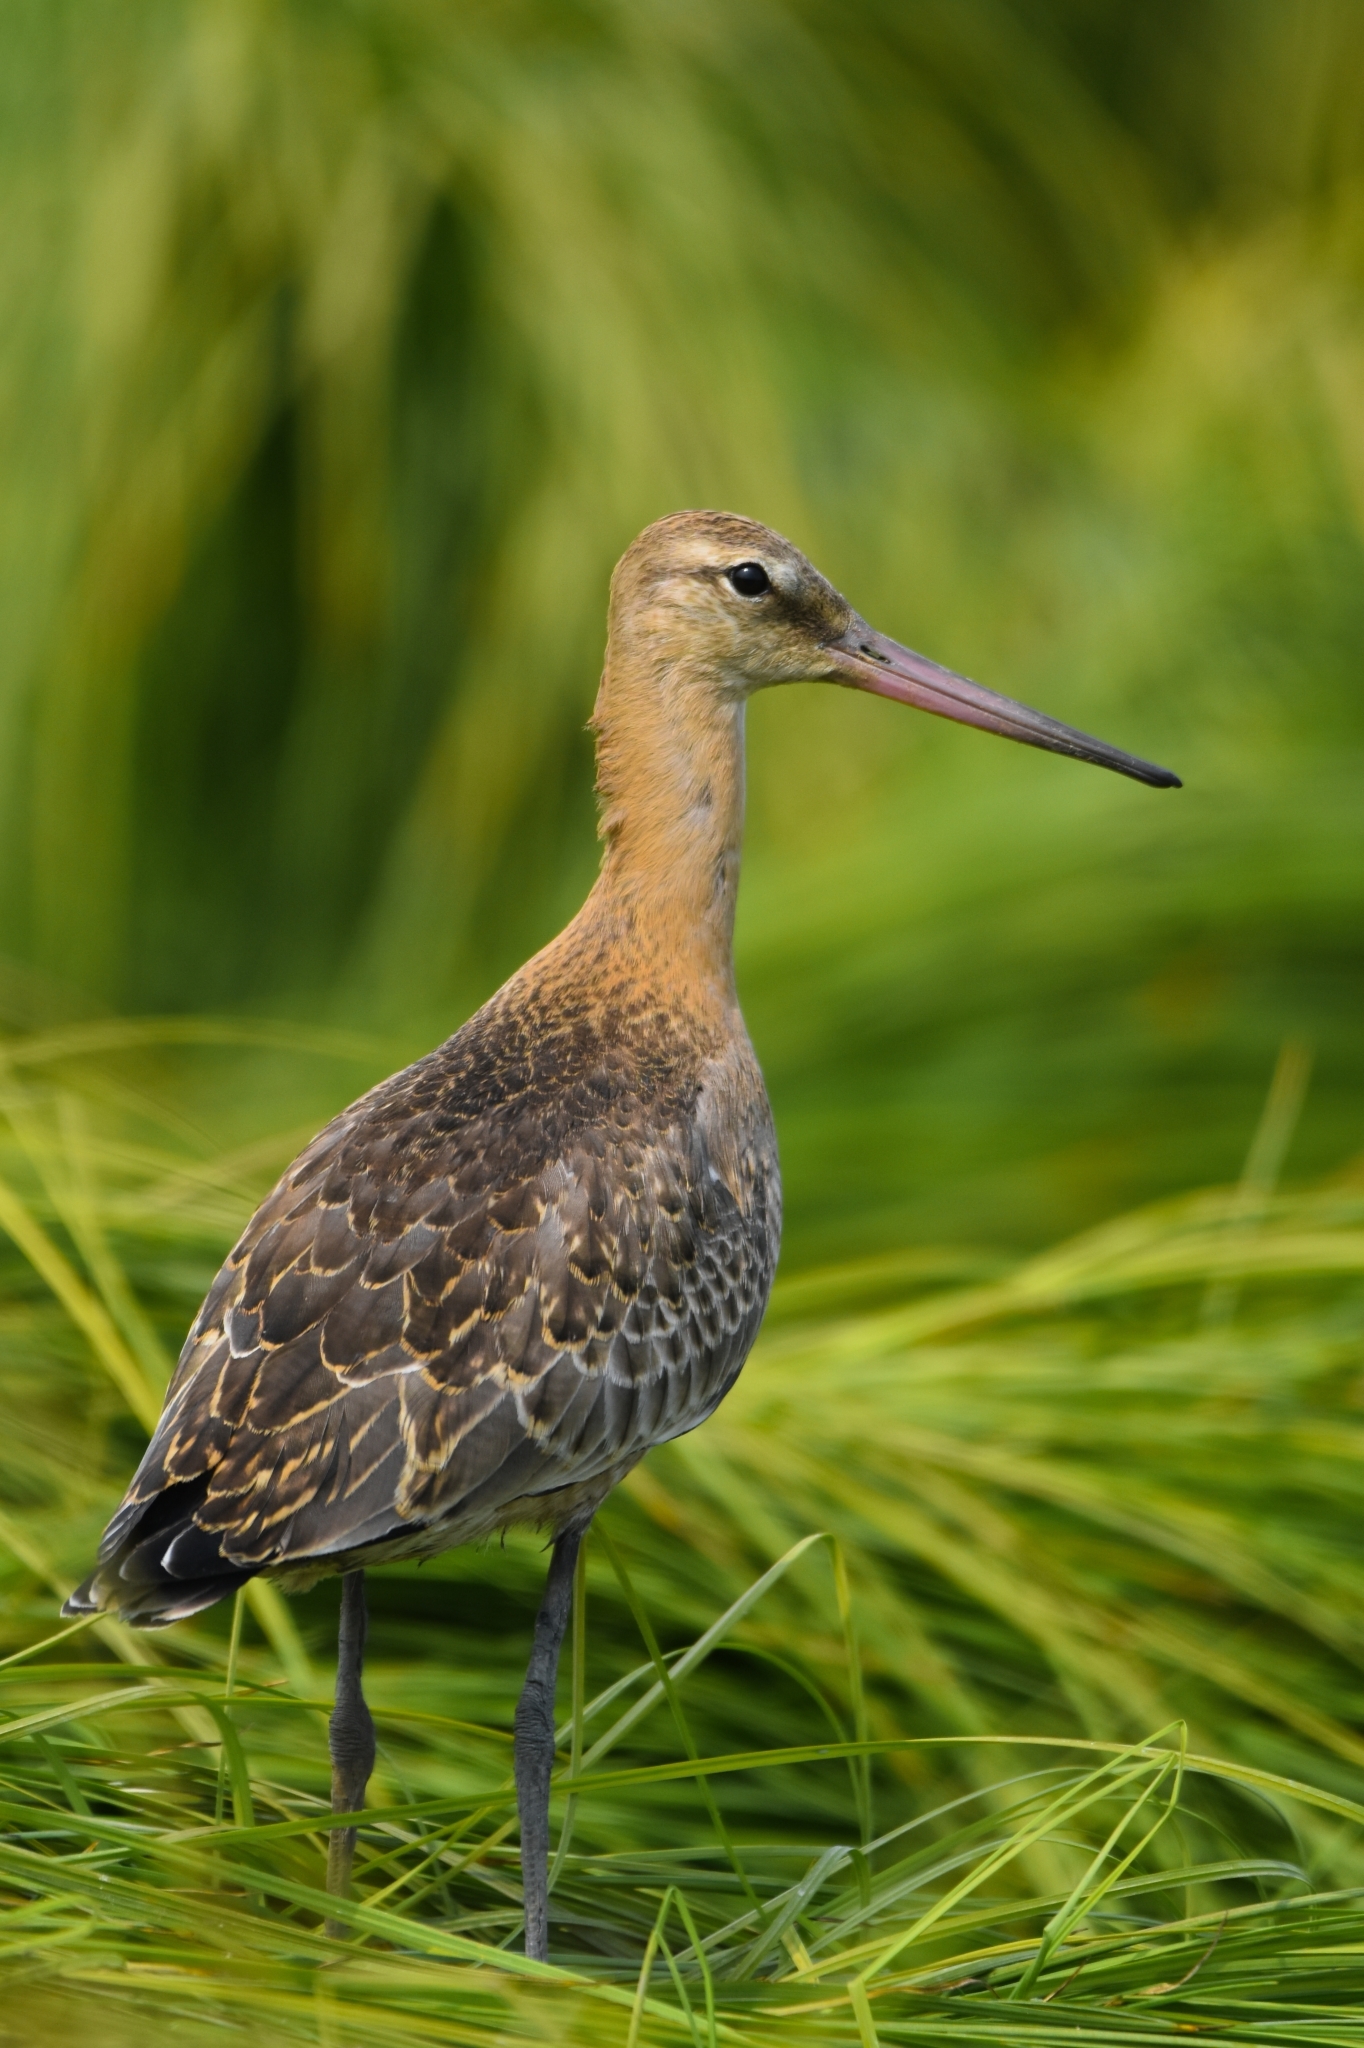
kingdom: Animalia
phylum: Chordata
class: Aves
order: Charadriiformes
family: Scolopacidae
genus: Limosa
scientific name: Limosa limosa
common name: Black-tailed godwit
